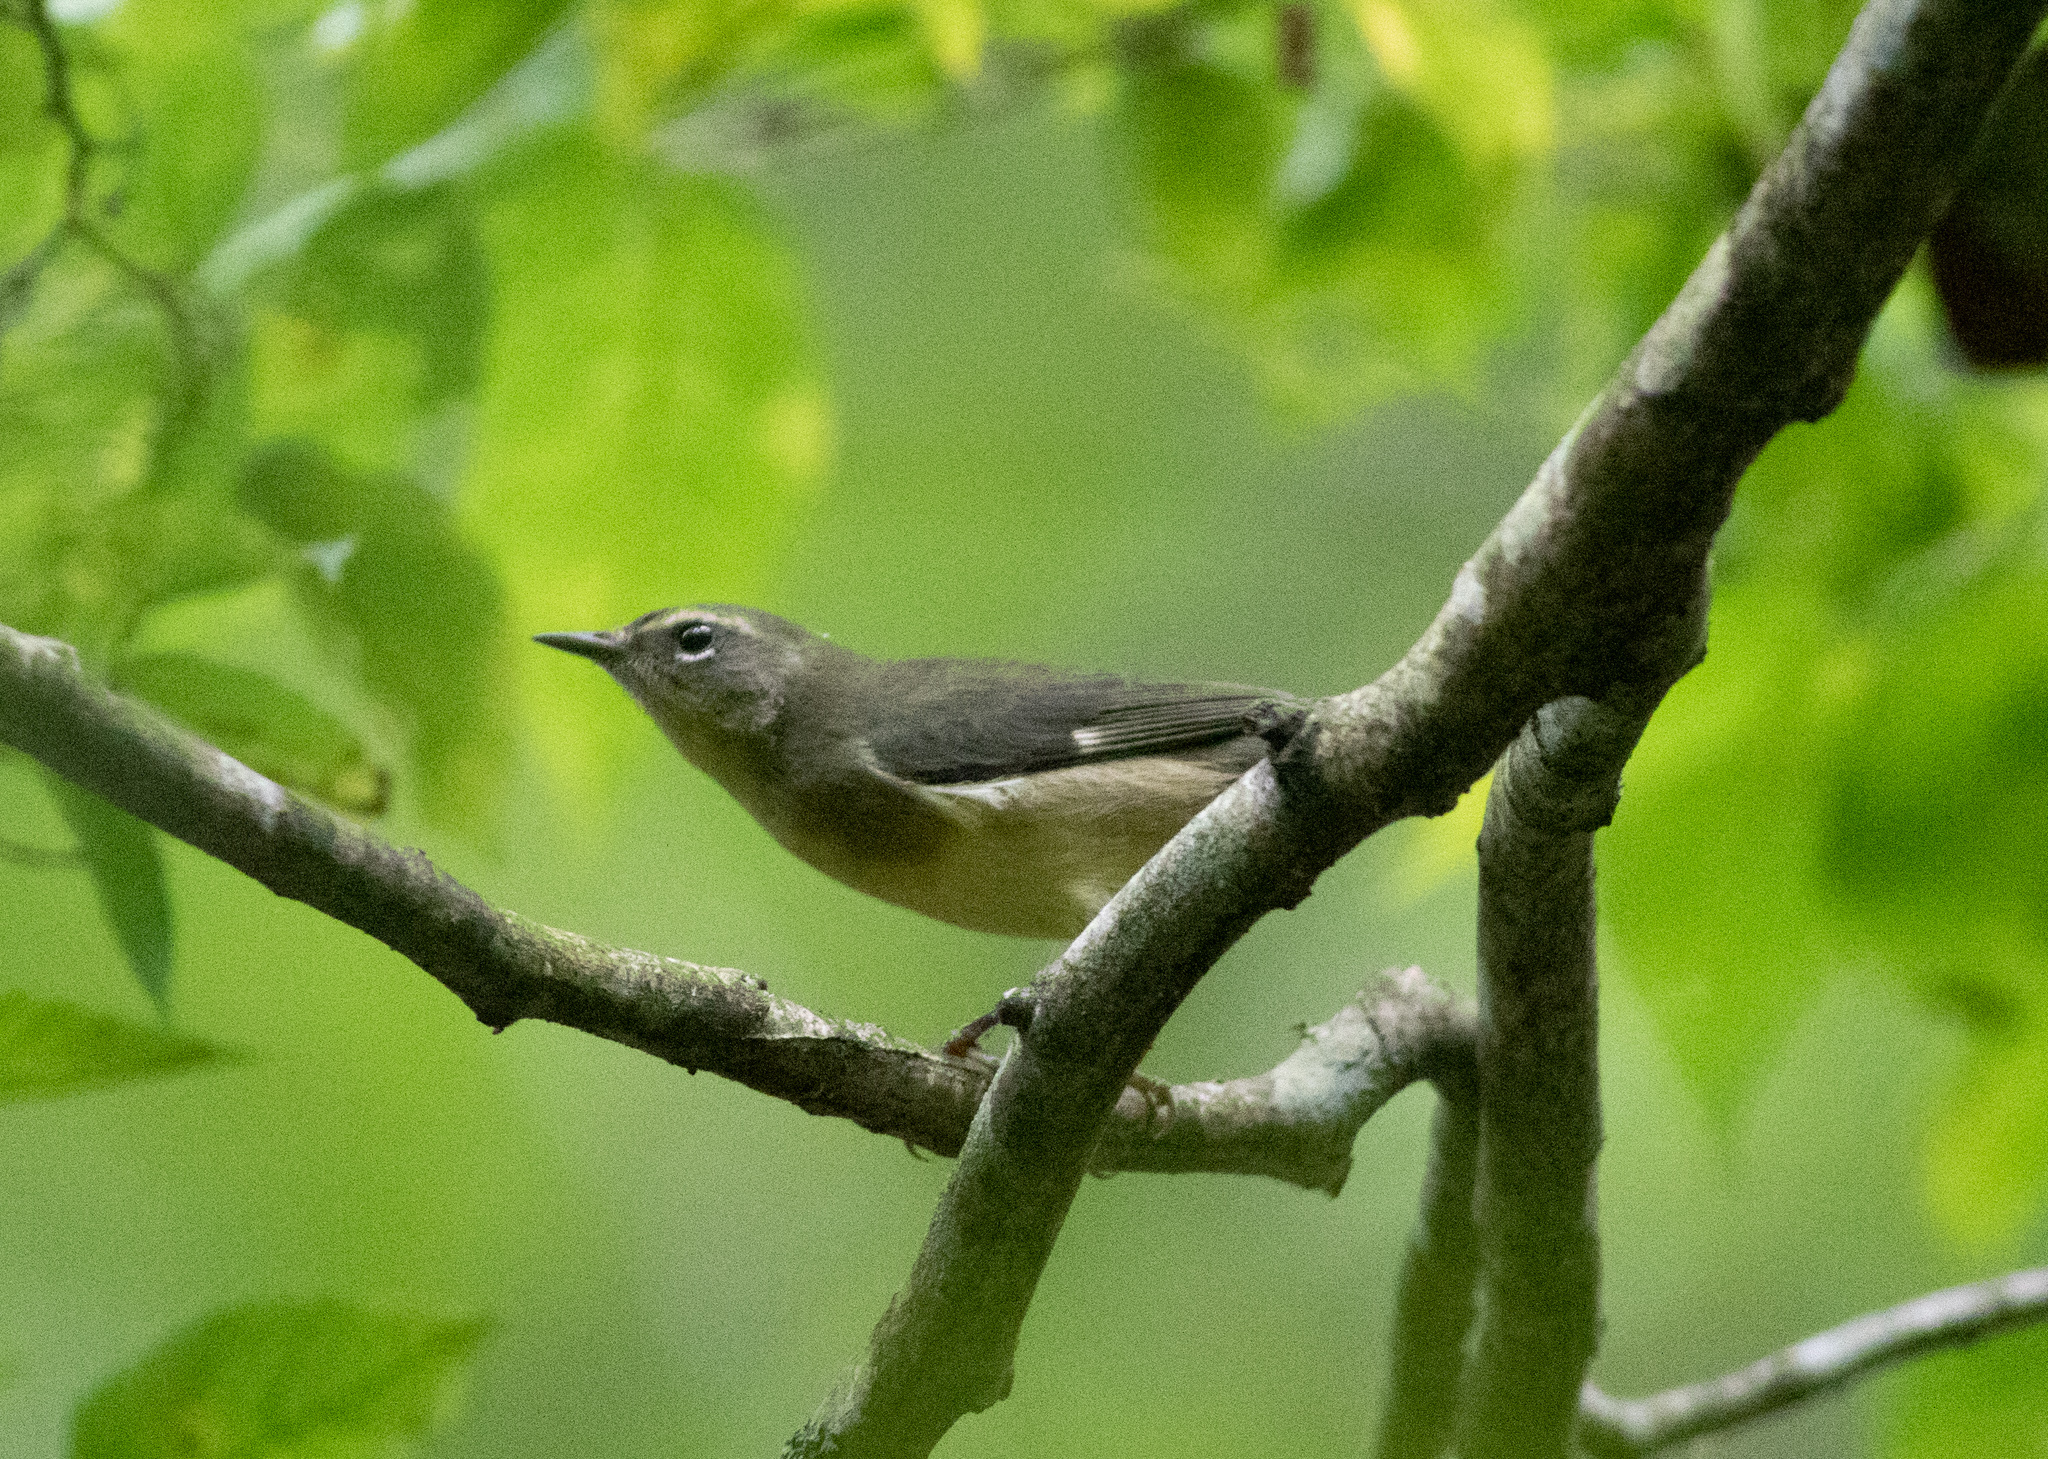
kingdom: Animalia
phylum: Chordata
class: Aves
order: Passeriformes
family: Parulidae
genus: Setophaga
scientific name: Setophaga caerulescens
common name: Black-throated blue warbler
